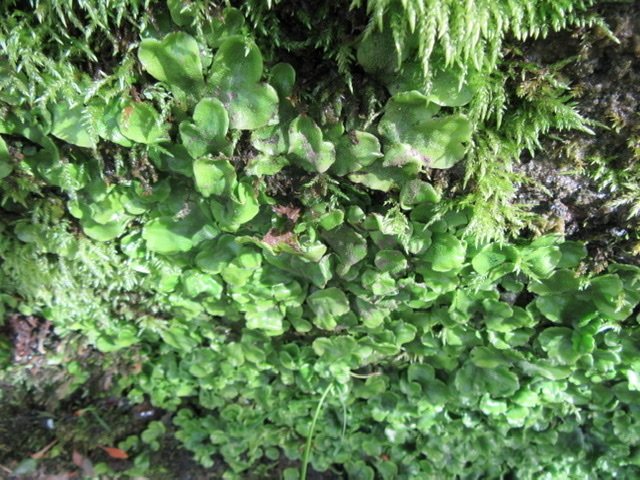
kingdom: Plantae
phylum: Marchantiophyta
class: Marchantiopsida
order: Marchantiales
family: Conocephalaceae
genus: Conocephalum
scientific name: Conocephalum conicum
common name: Great scented liverwort
